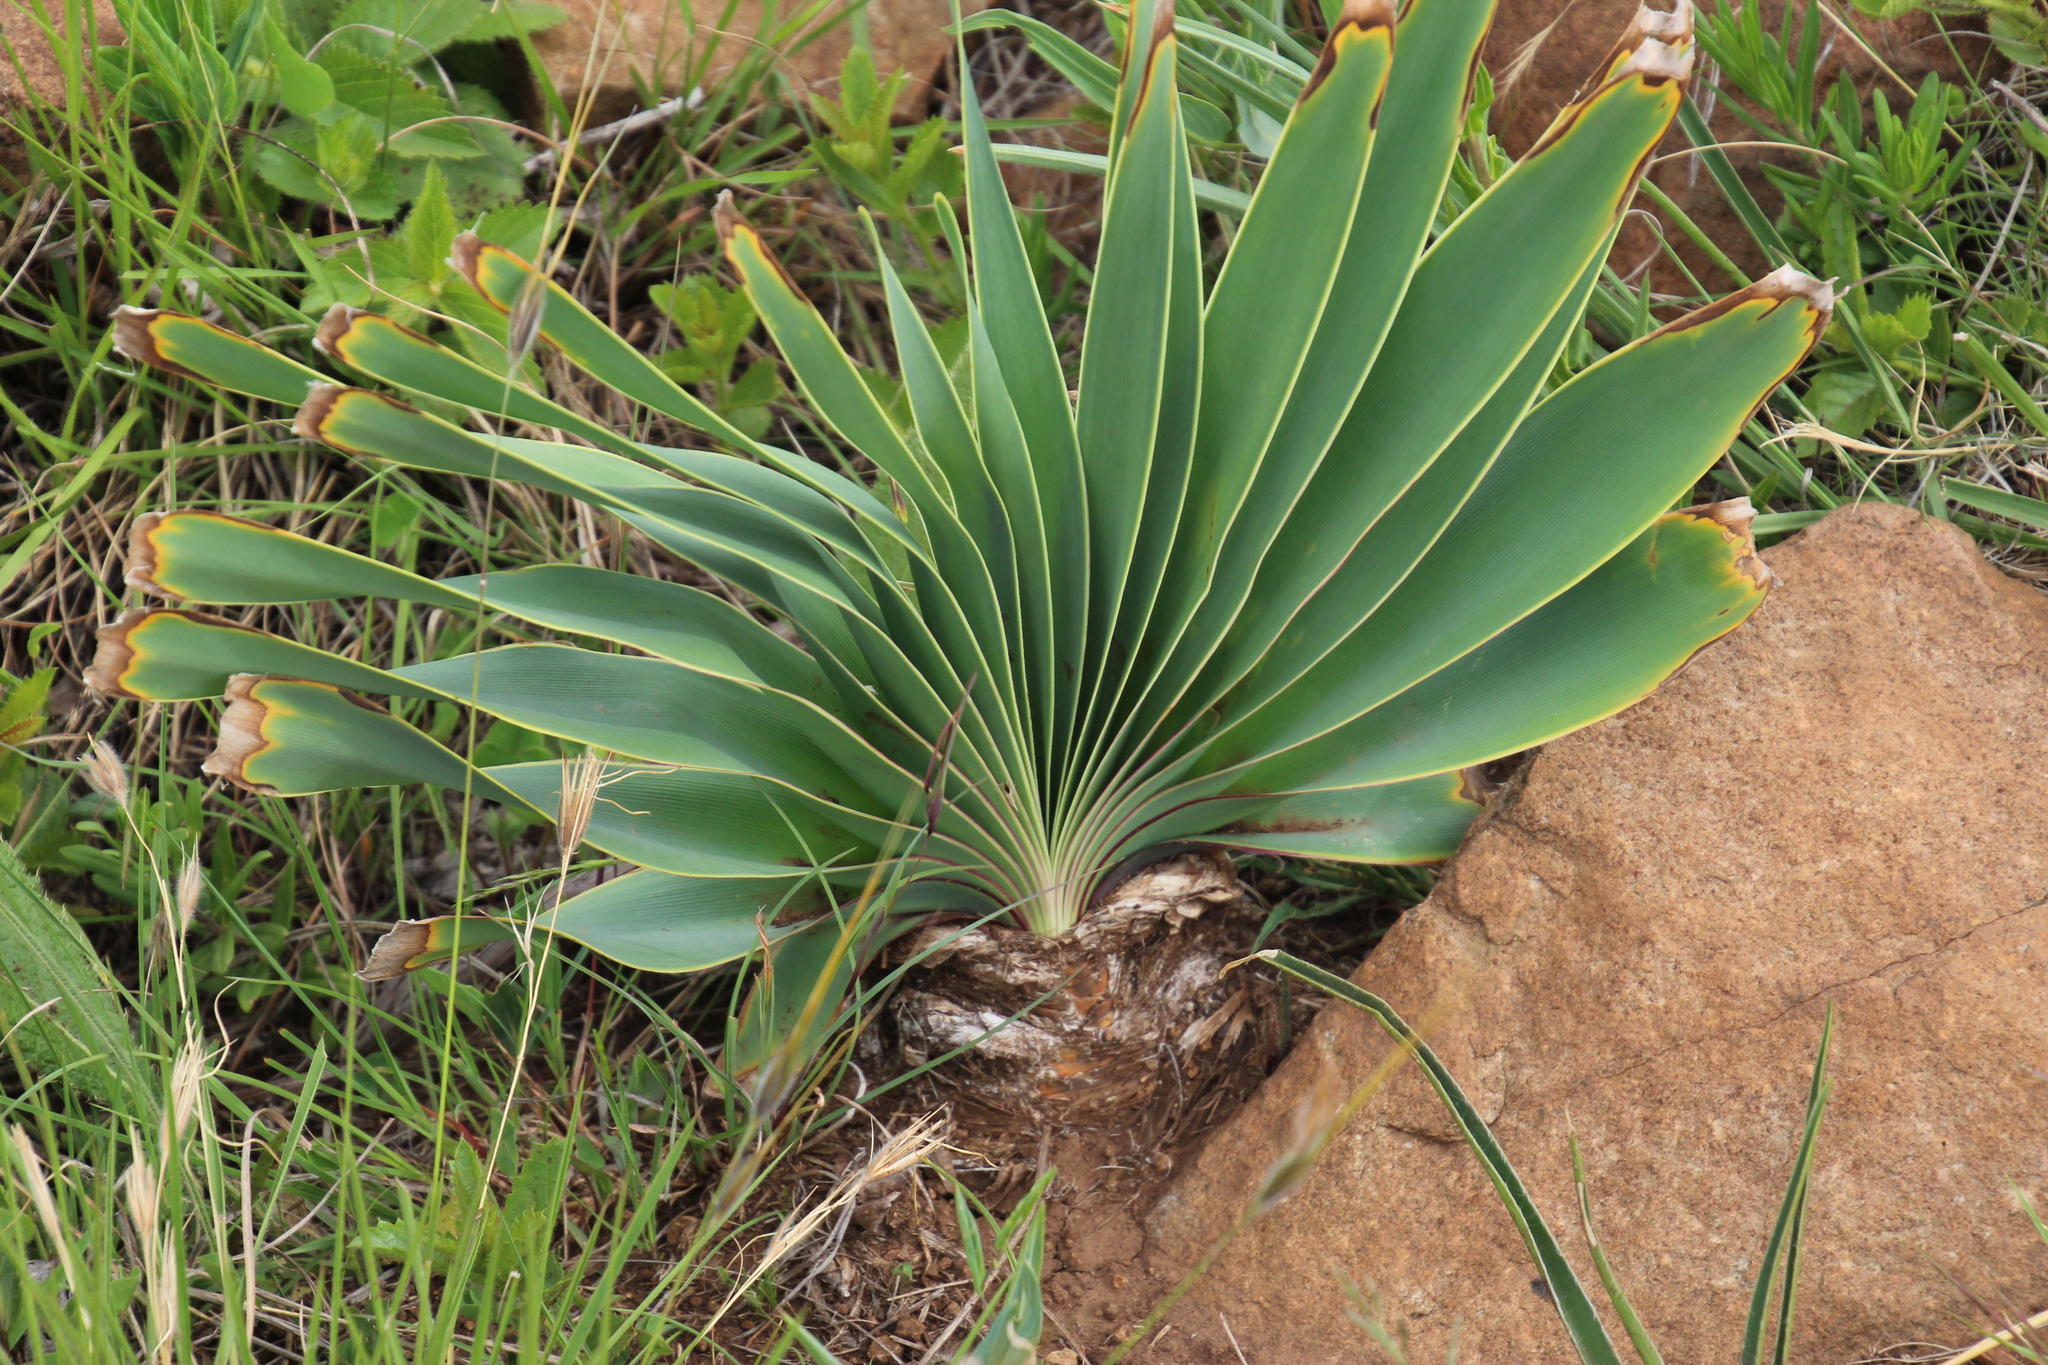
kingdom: Plantae
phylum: Tracheophyta
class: Liliopsida
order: Asparagales
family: Amaryllidaceae
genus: Boophone
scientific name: Boophone disticha
